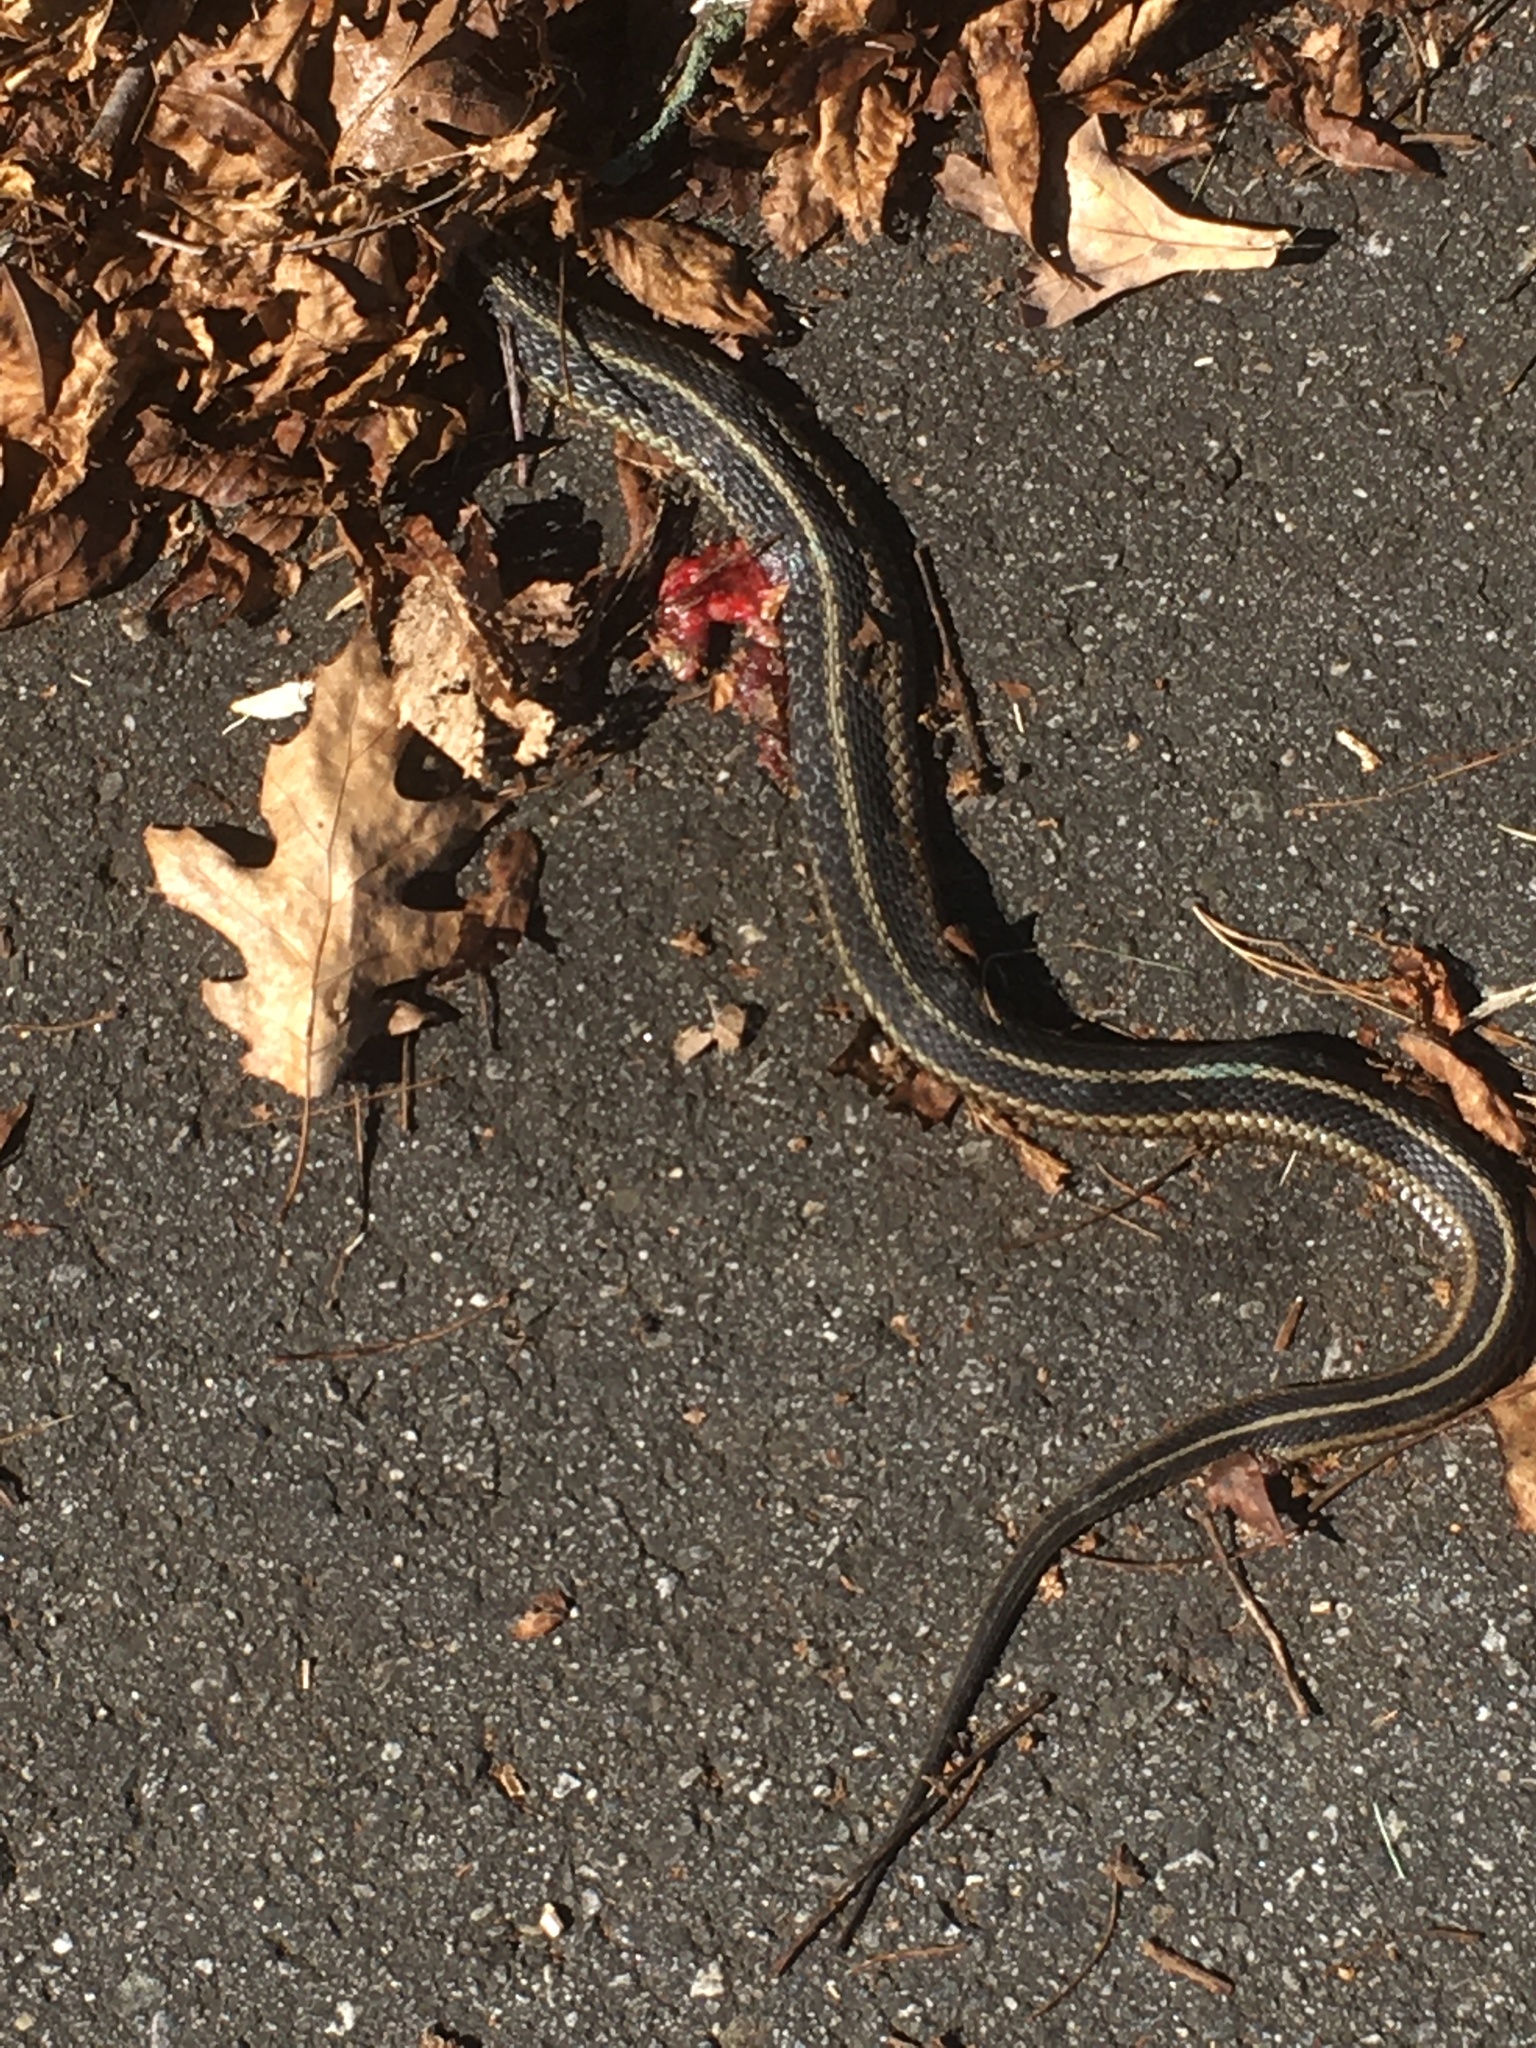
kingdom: Animalia
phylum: Chordata
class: Squamata
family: Colubridae
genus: Thamnophis
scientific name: Thamnophis sirtalis
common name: Common garter snake
